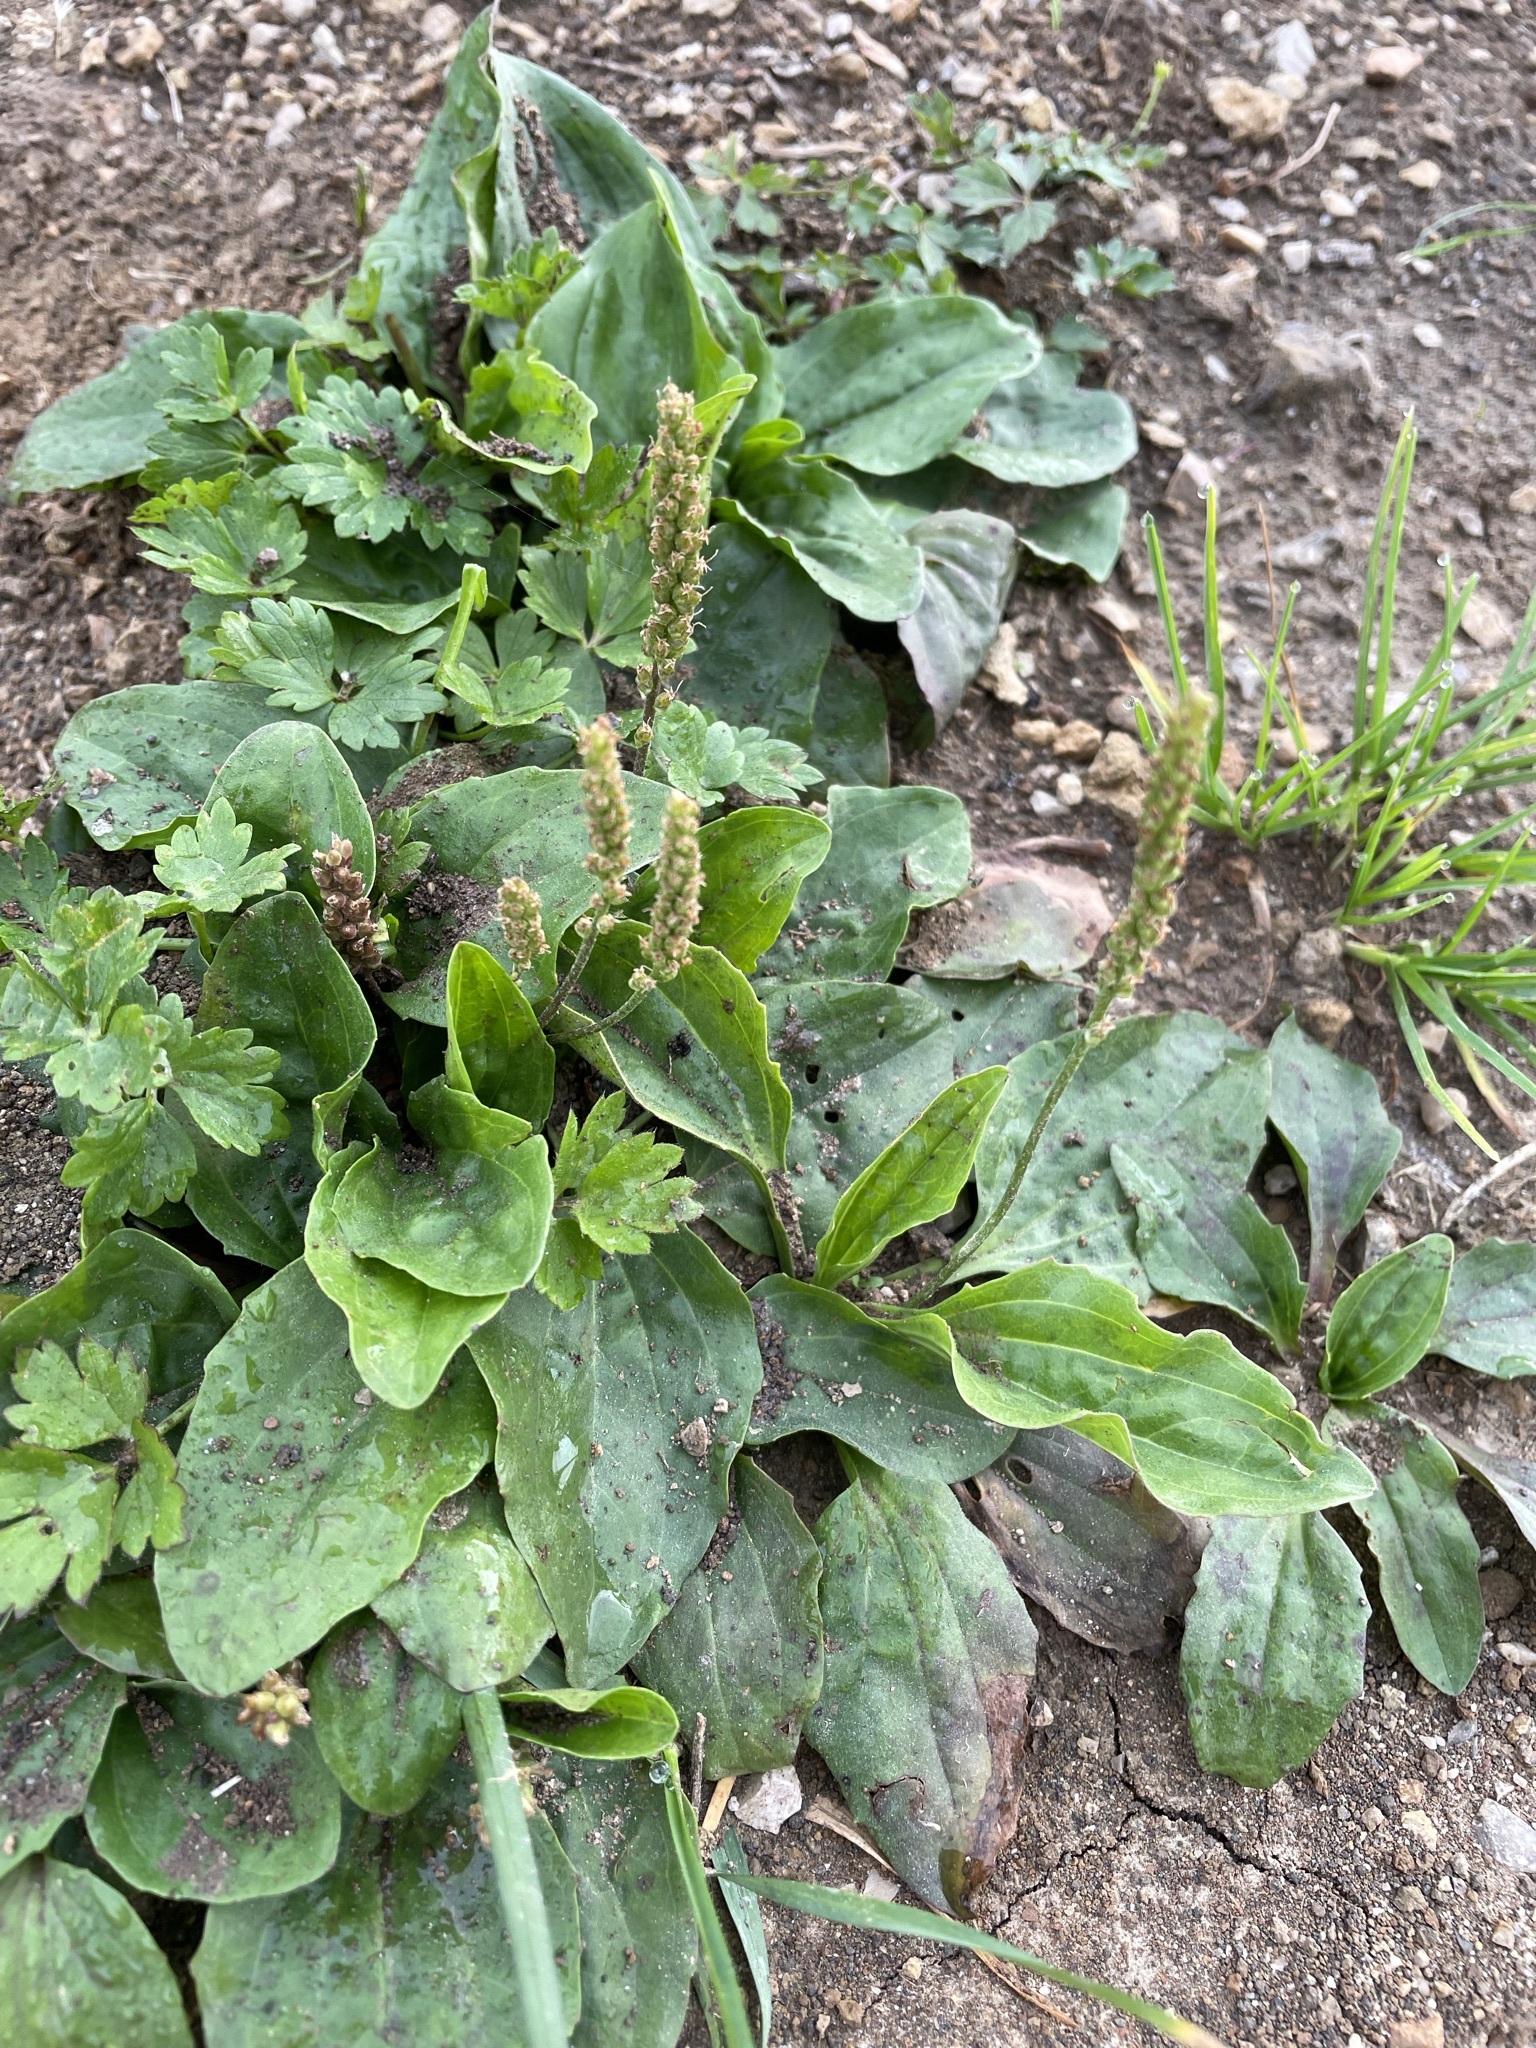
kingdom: Plantae
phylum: Tracheophyta
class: Magnoliopsida
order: Lamiales
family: Plantaginaceae
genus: Plantago
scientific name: Plantago major
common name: Common plantain
